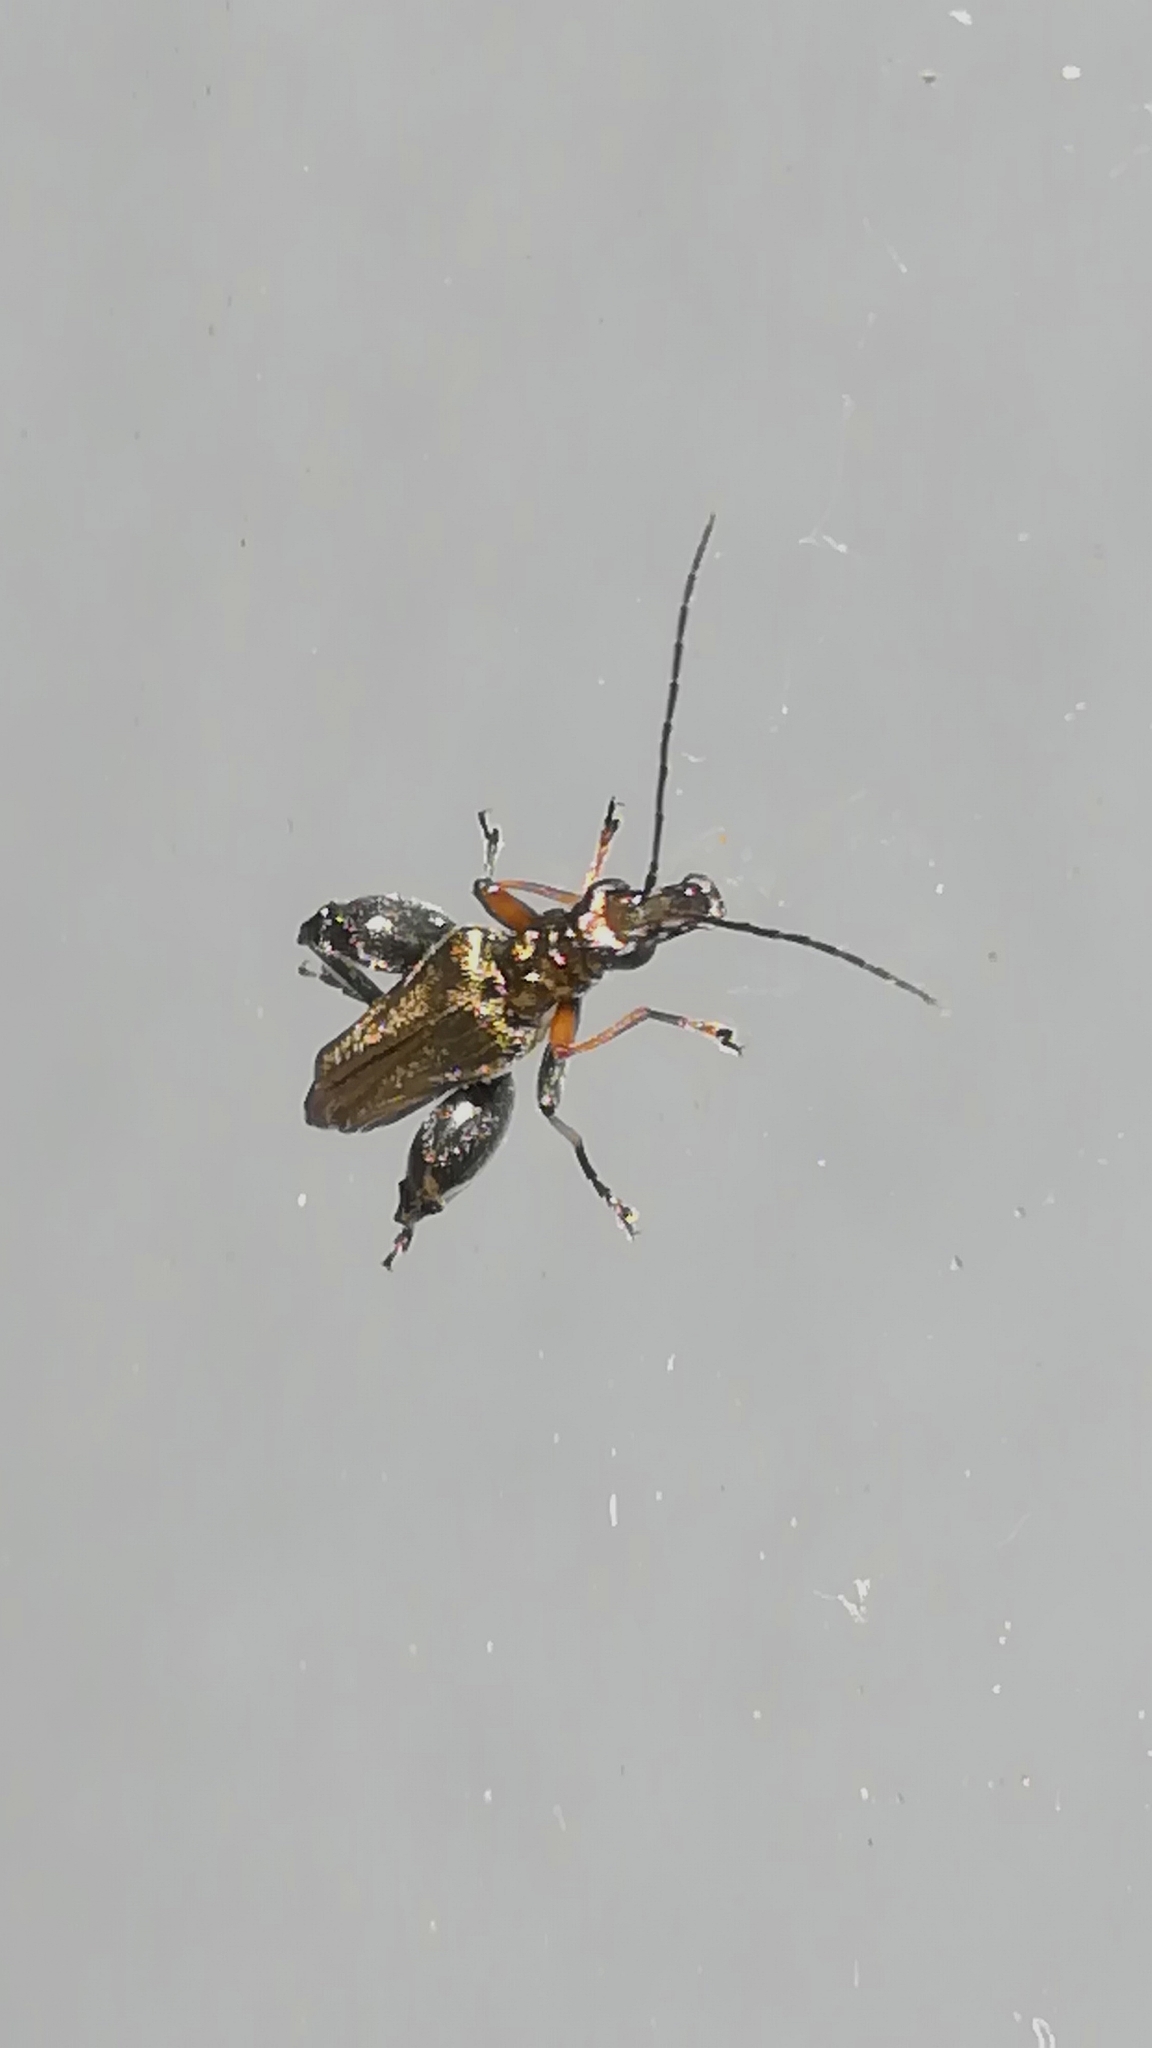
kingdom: Animalia
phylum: Arthropoda
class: Insecta
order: Coleoptera
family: Oedemeridae
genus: Oedemera
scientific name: Oedemera flavipes
